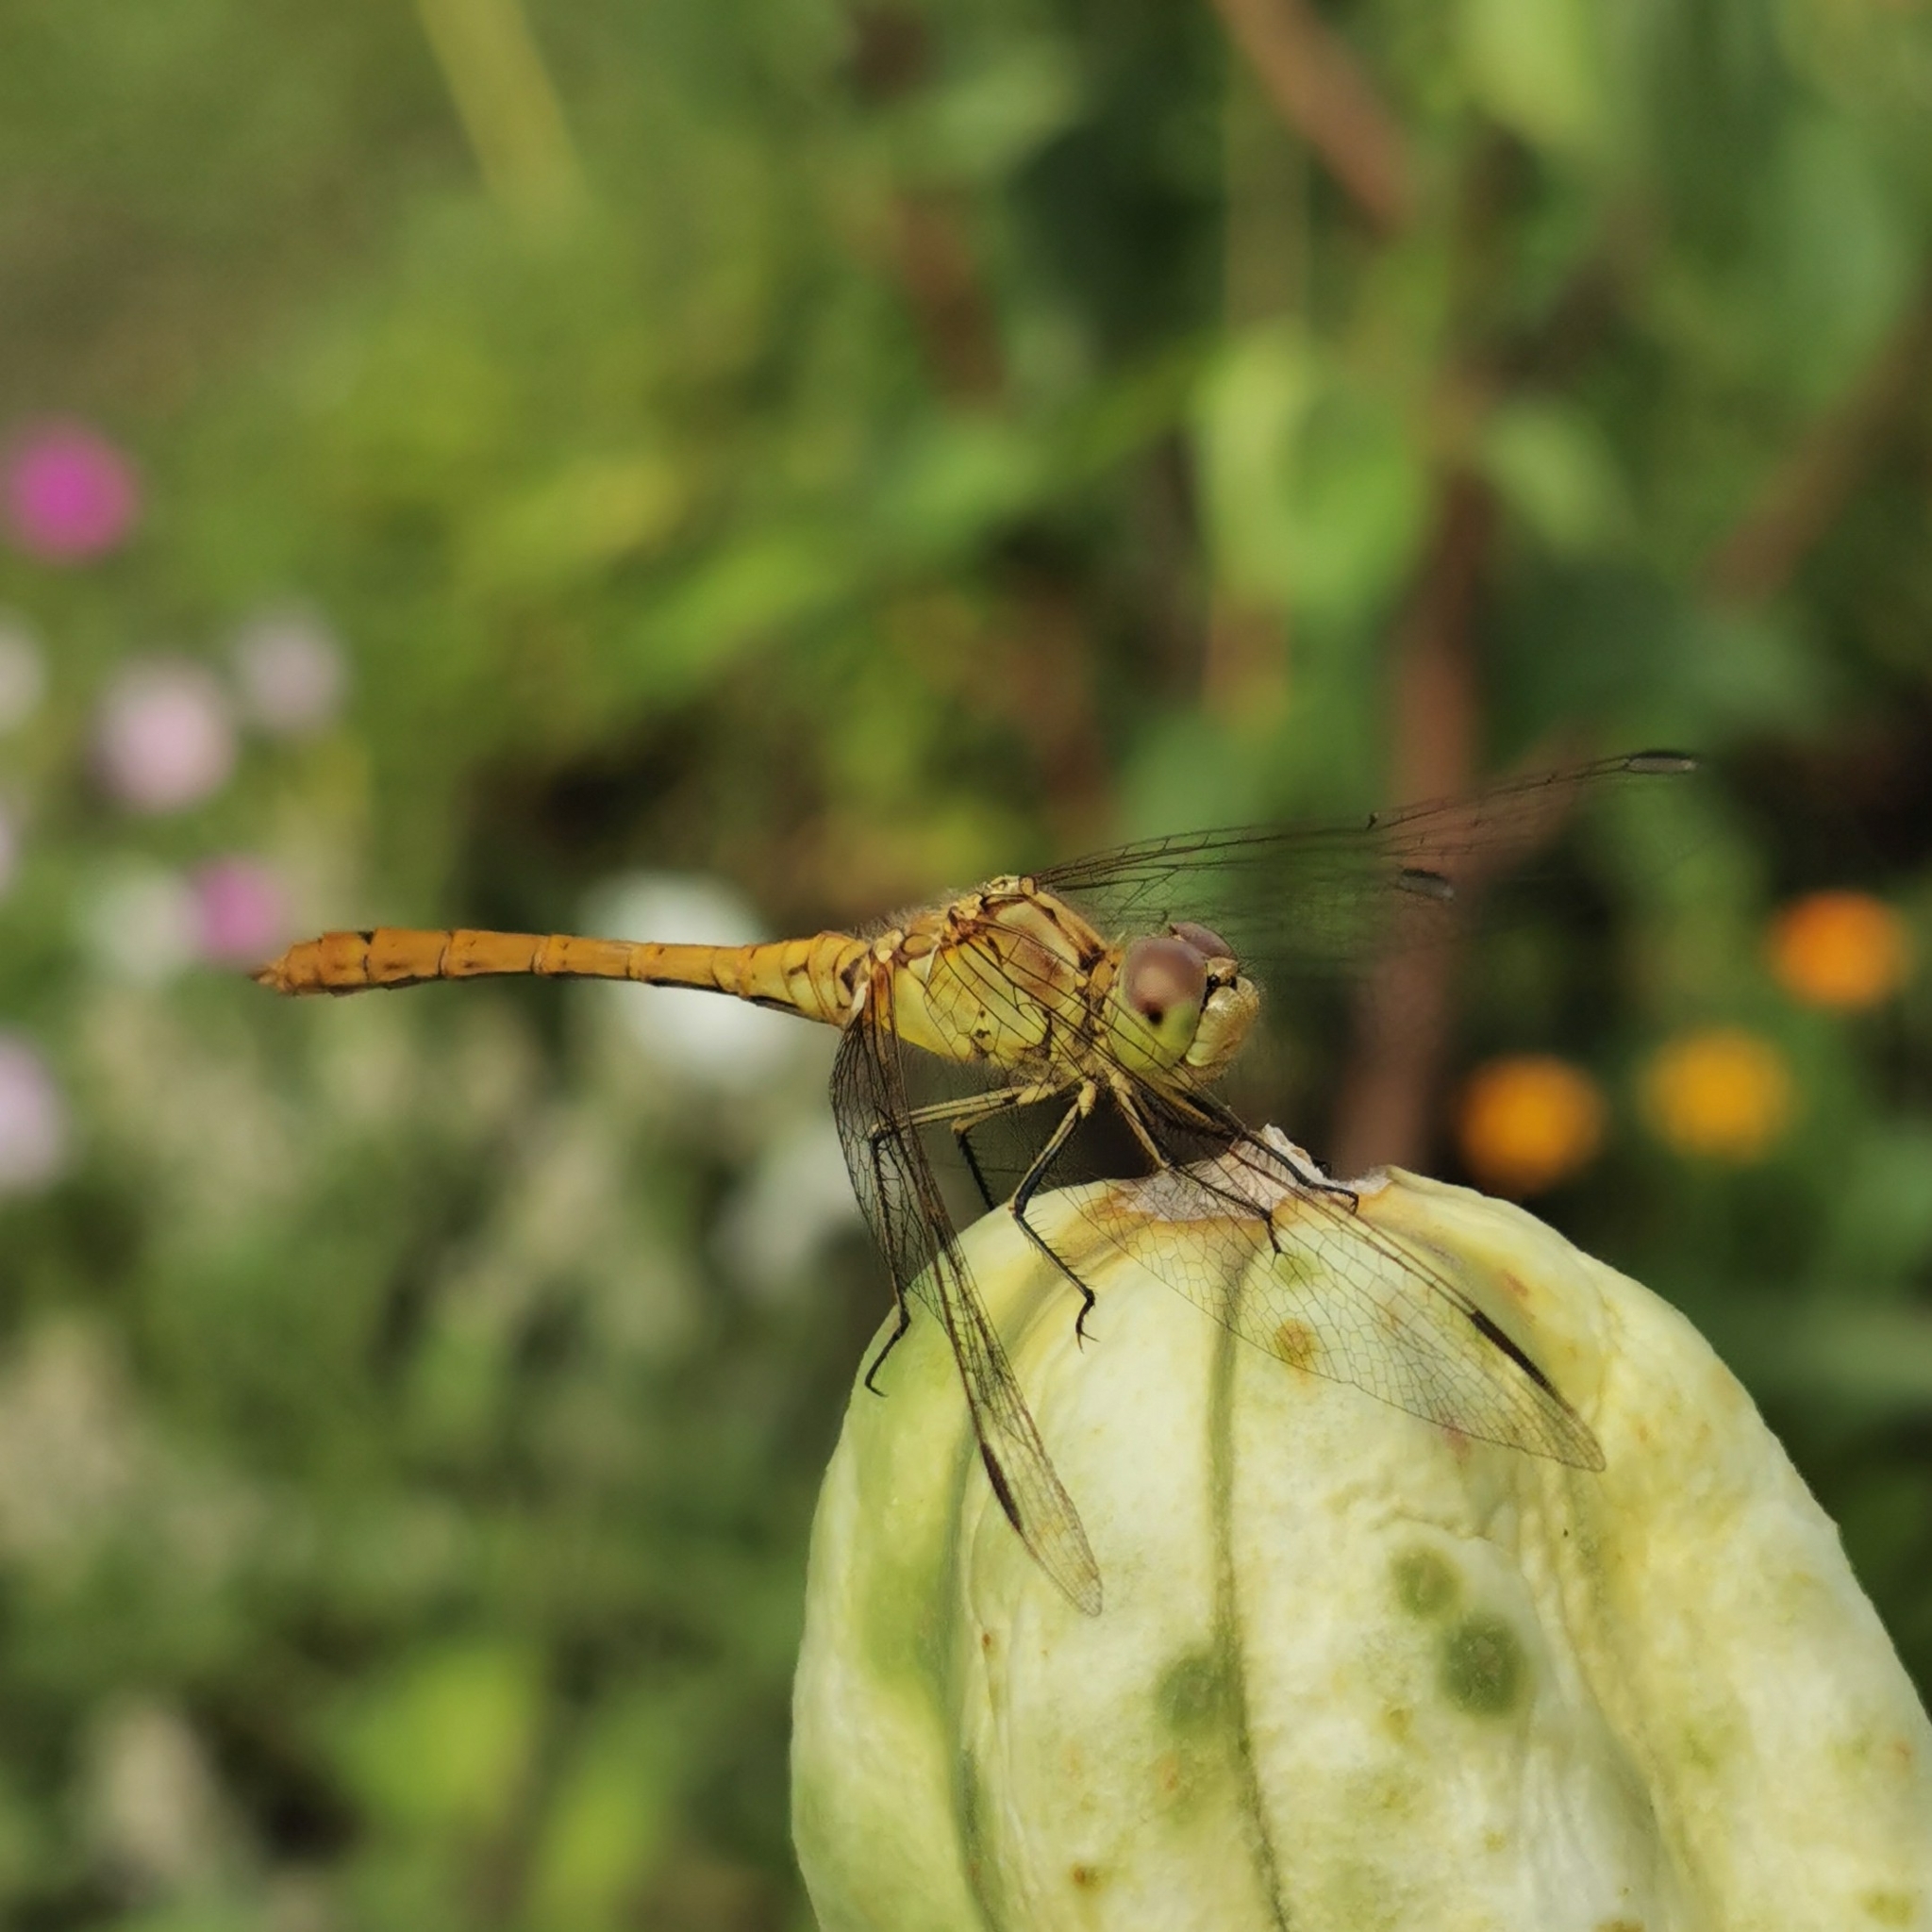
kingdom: Animalia
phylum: Arthropoda
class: Insecta
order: Odonata
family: Libellulidae
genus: Sympetrum
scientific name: Sympetrum meridionale
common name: Southern darter
